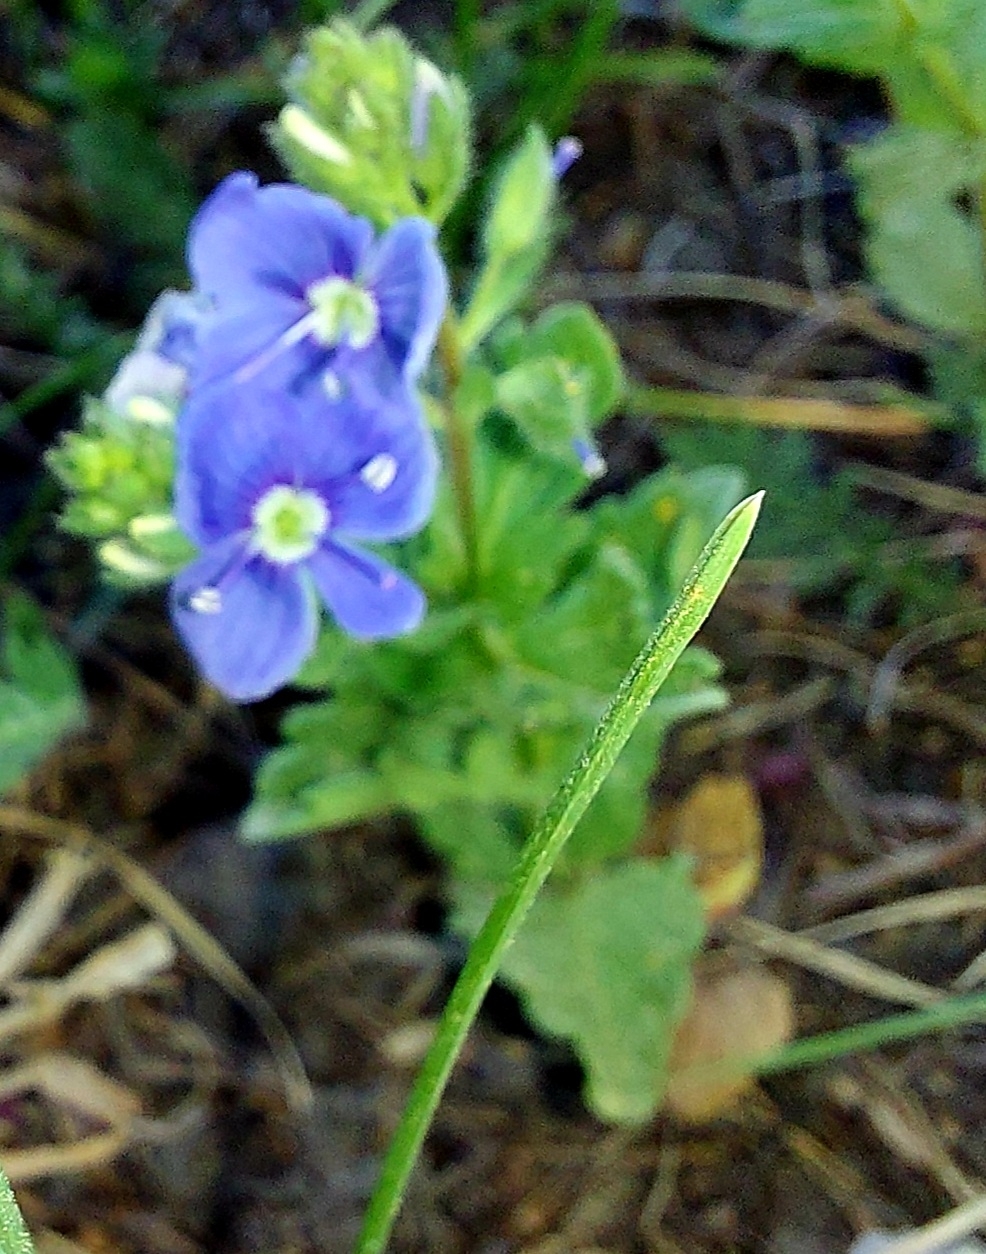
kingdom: Plantae
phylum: Tracheophyta
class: Magnoliopsida
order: Lamiales
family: Plantaginaceae
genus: Veronica
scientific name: Veronica chamaedrys
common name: Germander speedwell
